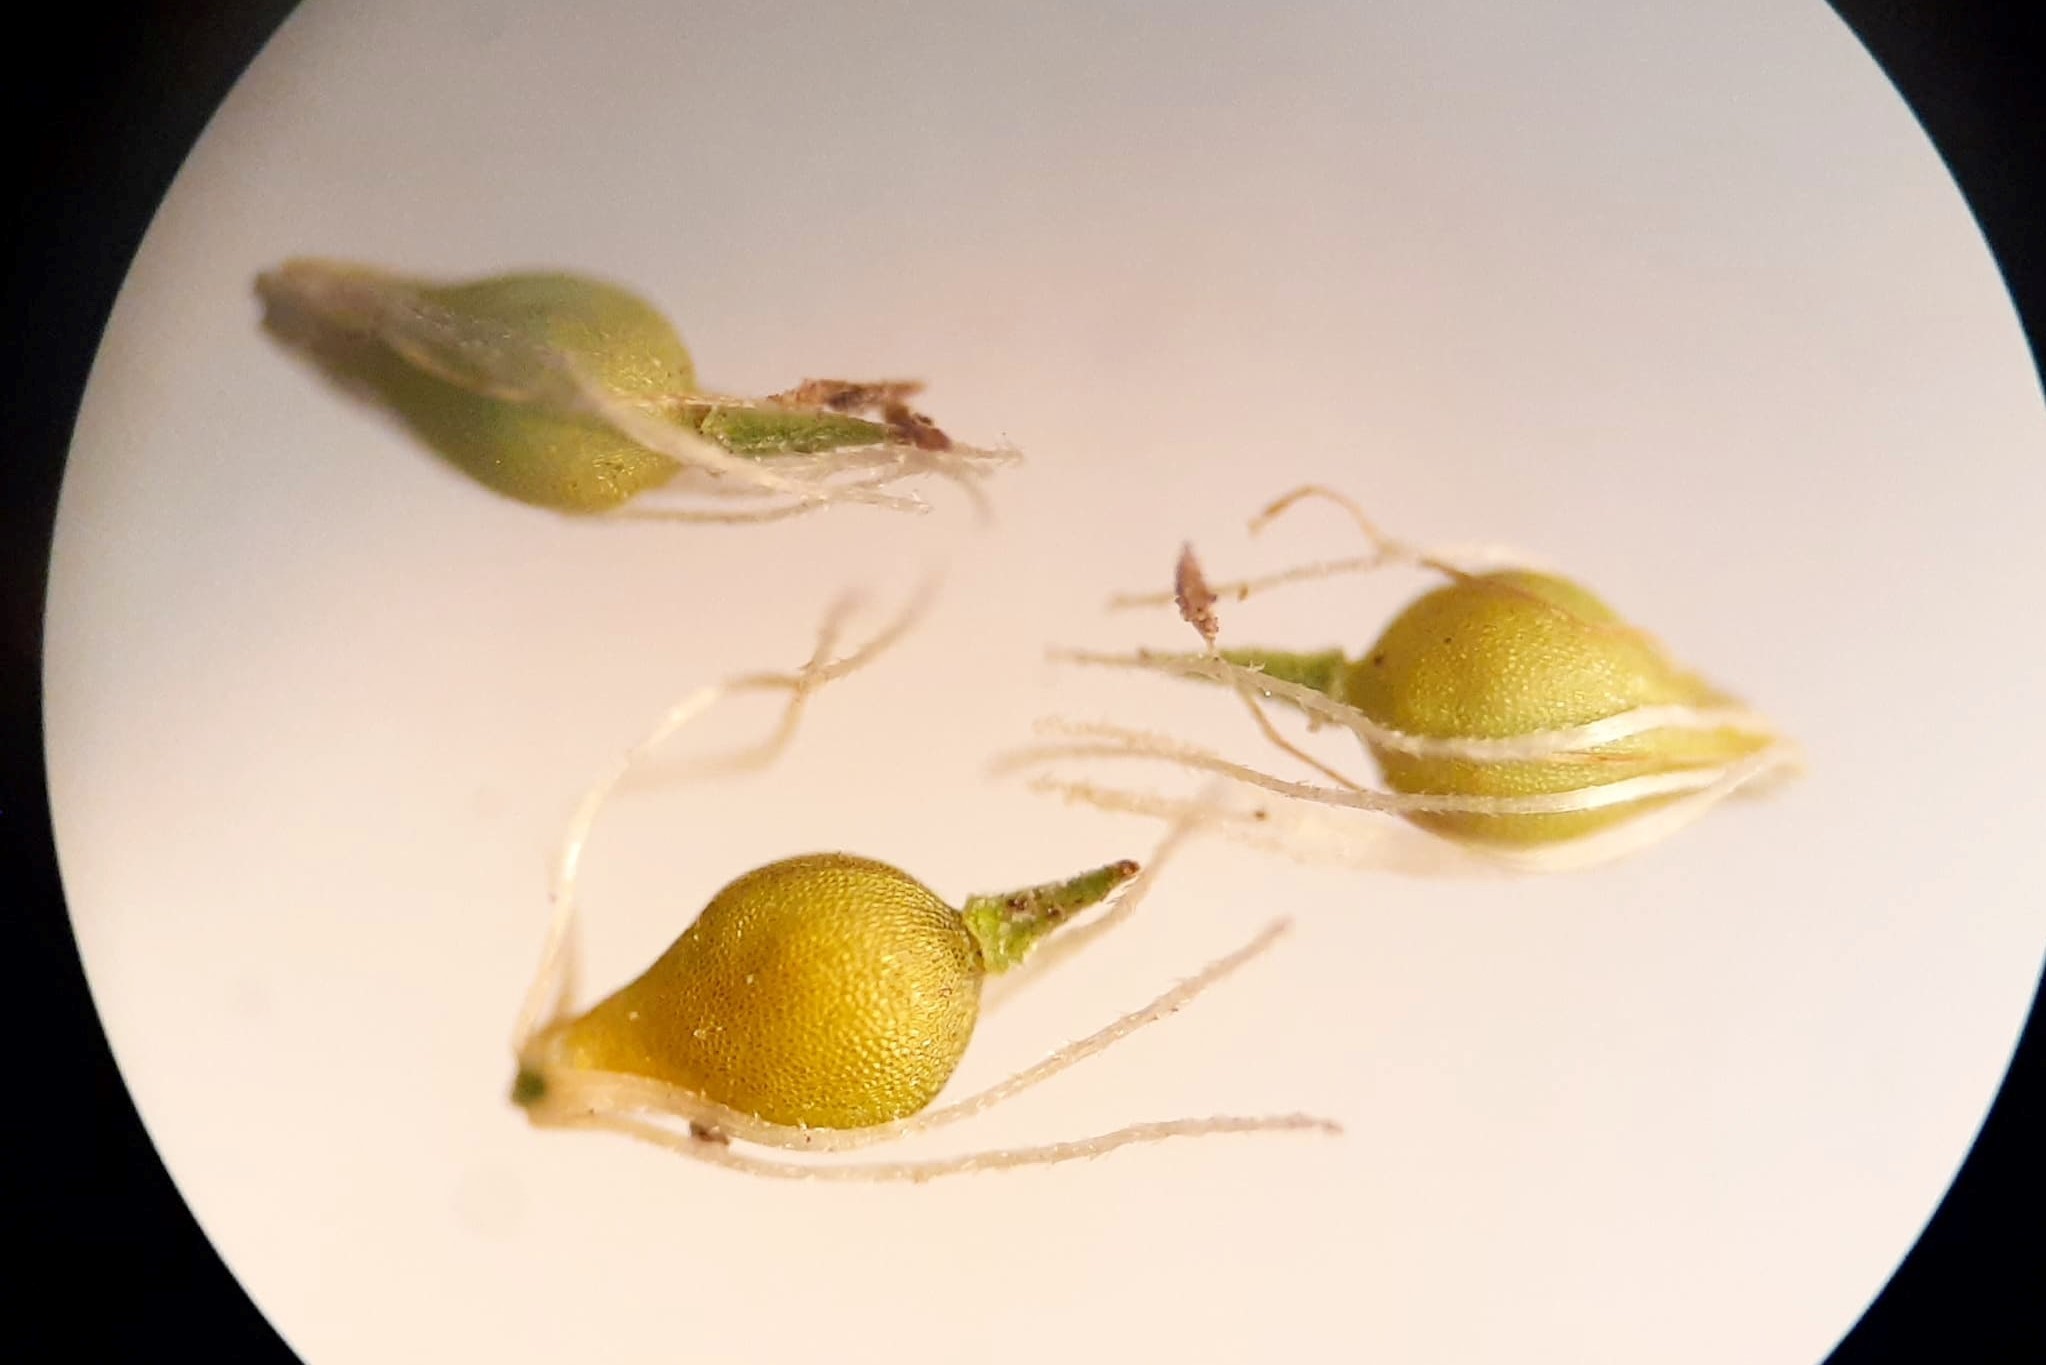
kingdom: Plantae
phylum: Tracheophyta
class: Liliopsida
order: Poales
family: Cyperaceae
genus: Eleocharis
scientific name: Eleocharis intermedia
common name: Intermediate spikerush
